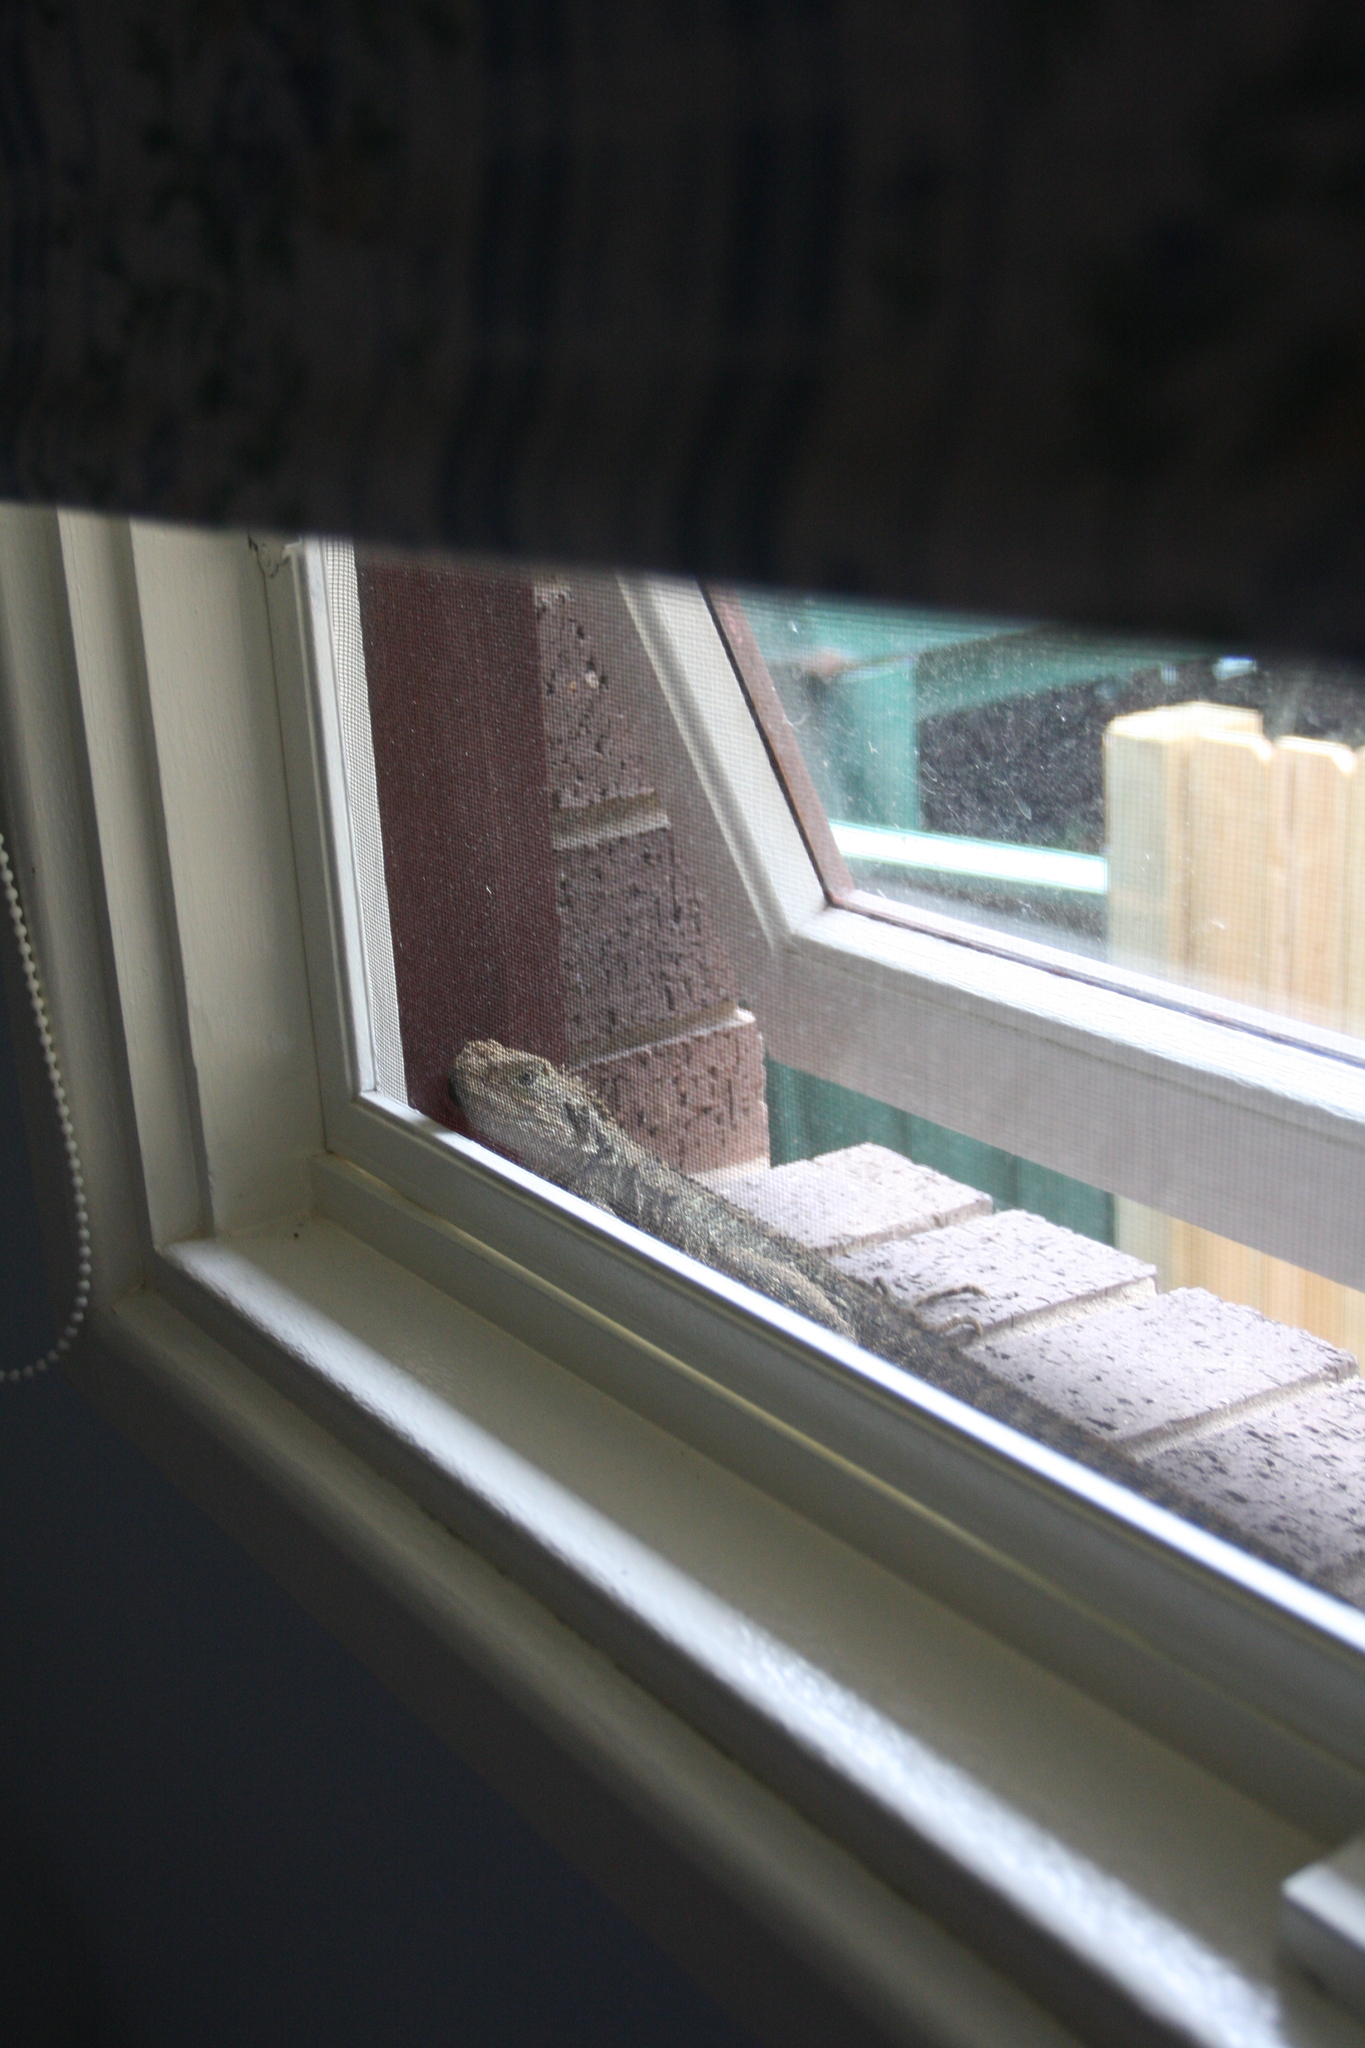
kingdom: Animalia
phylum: Chordata
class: Squamata
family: Agamidae
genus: Intellagama
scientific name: Intellagama lesueurii
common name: Eastern water dragon
